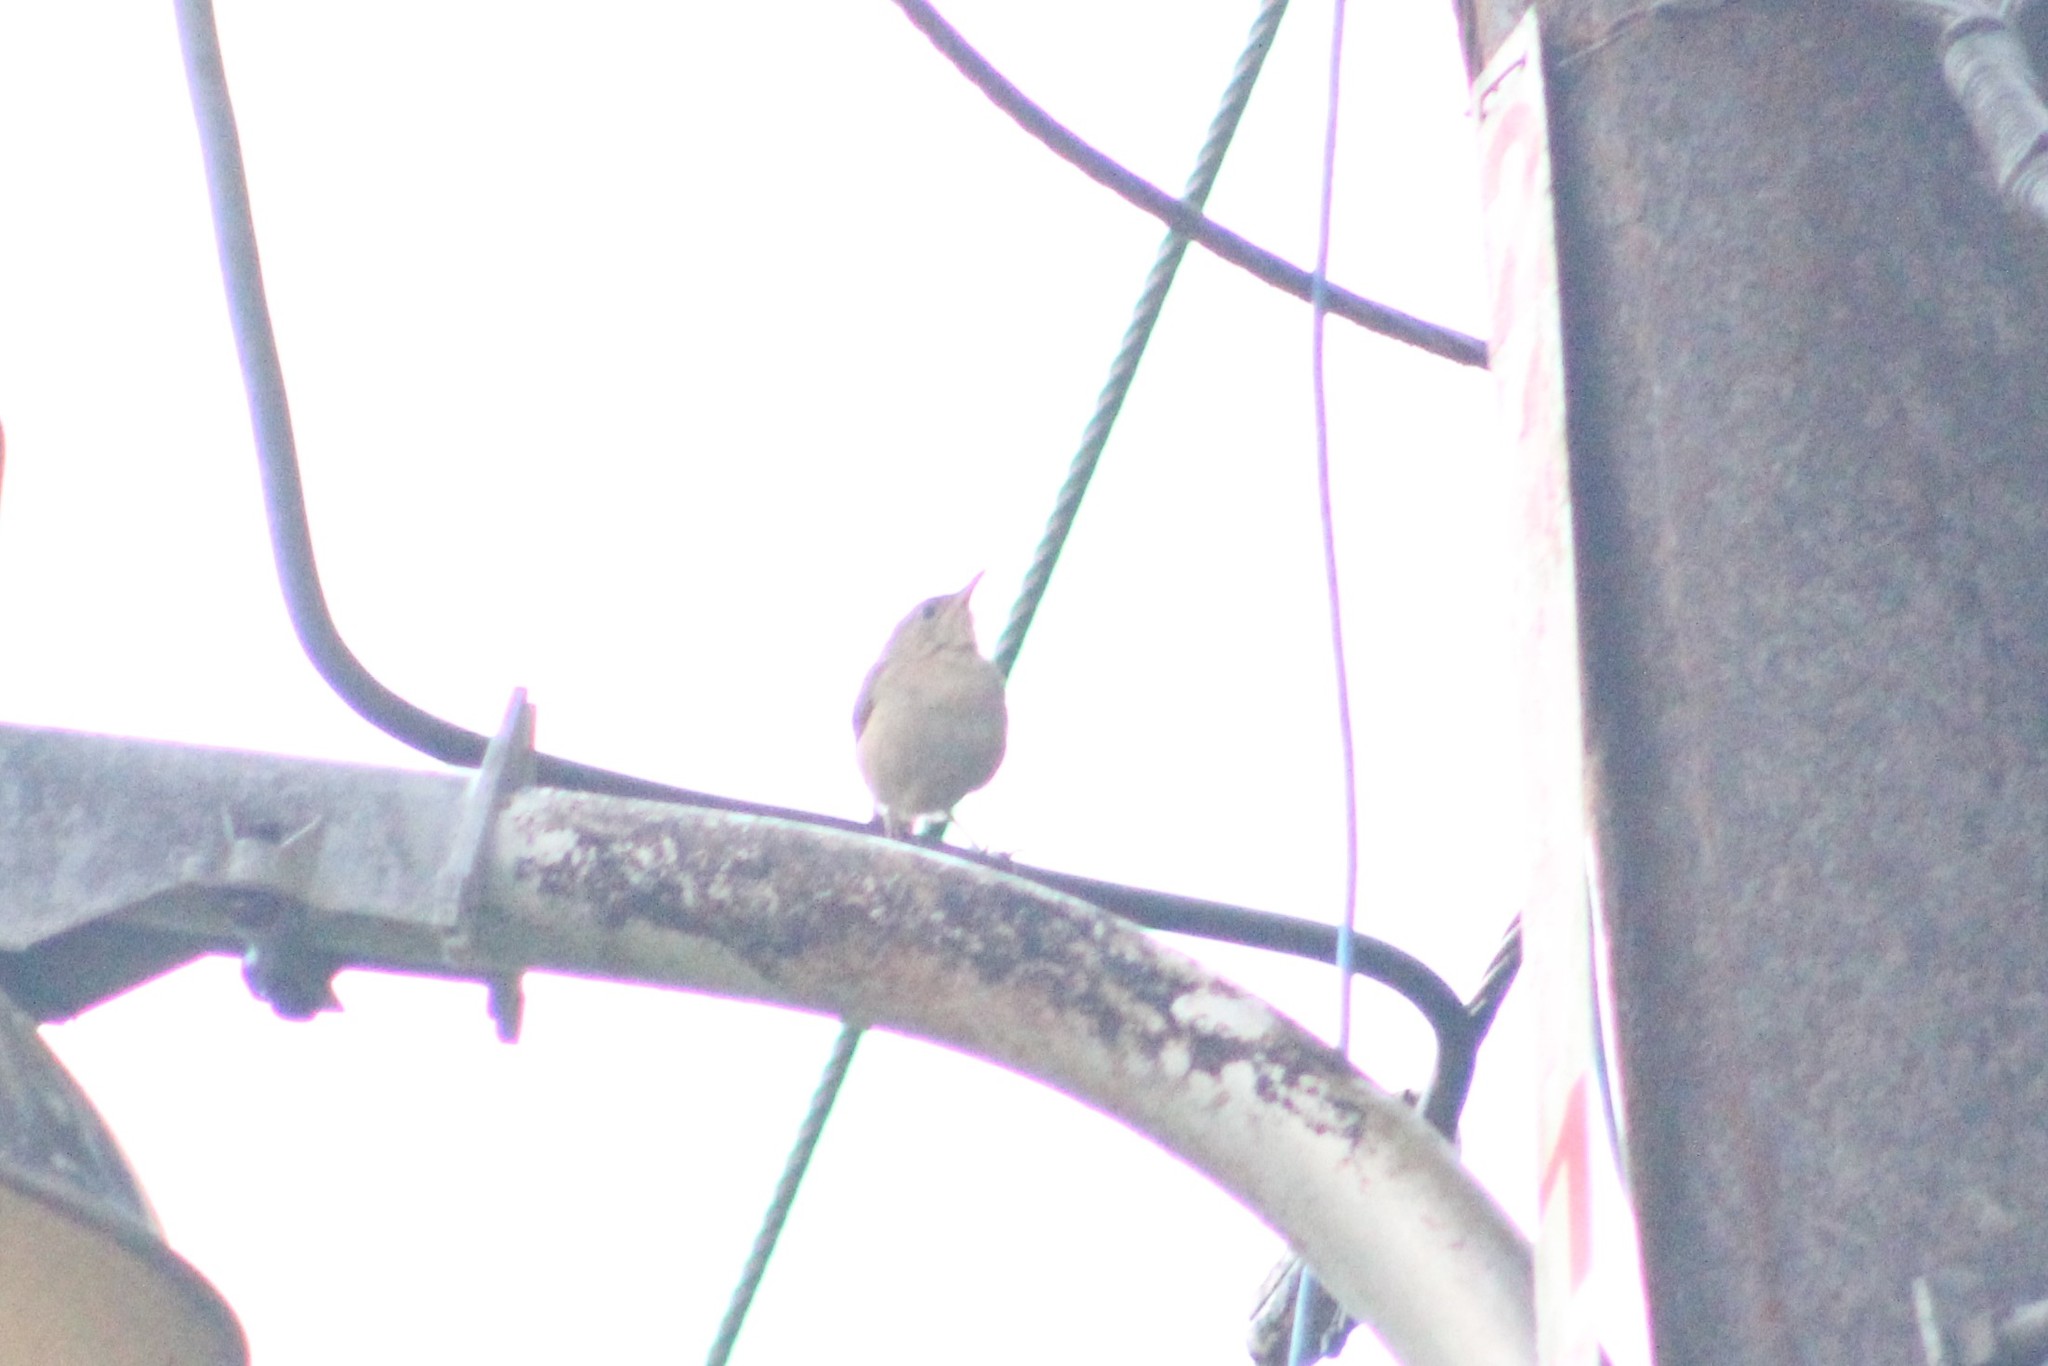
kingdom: Animalia
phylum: Chordata
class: Aves
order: Passeriformes
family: Troglodytidae
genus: Troglodytes
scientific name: Troglodytes aedon
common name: House wren
